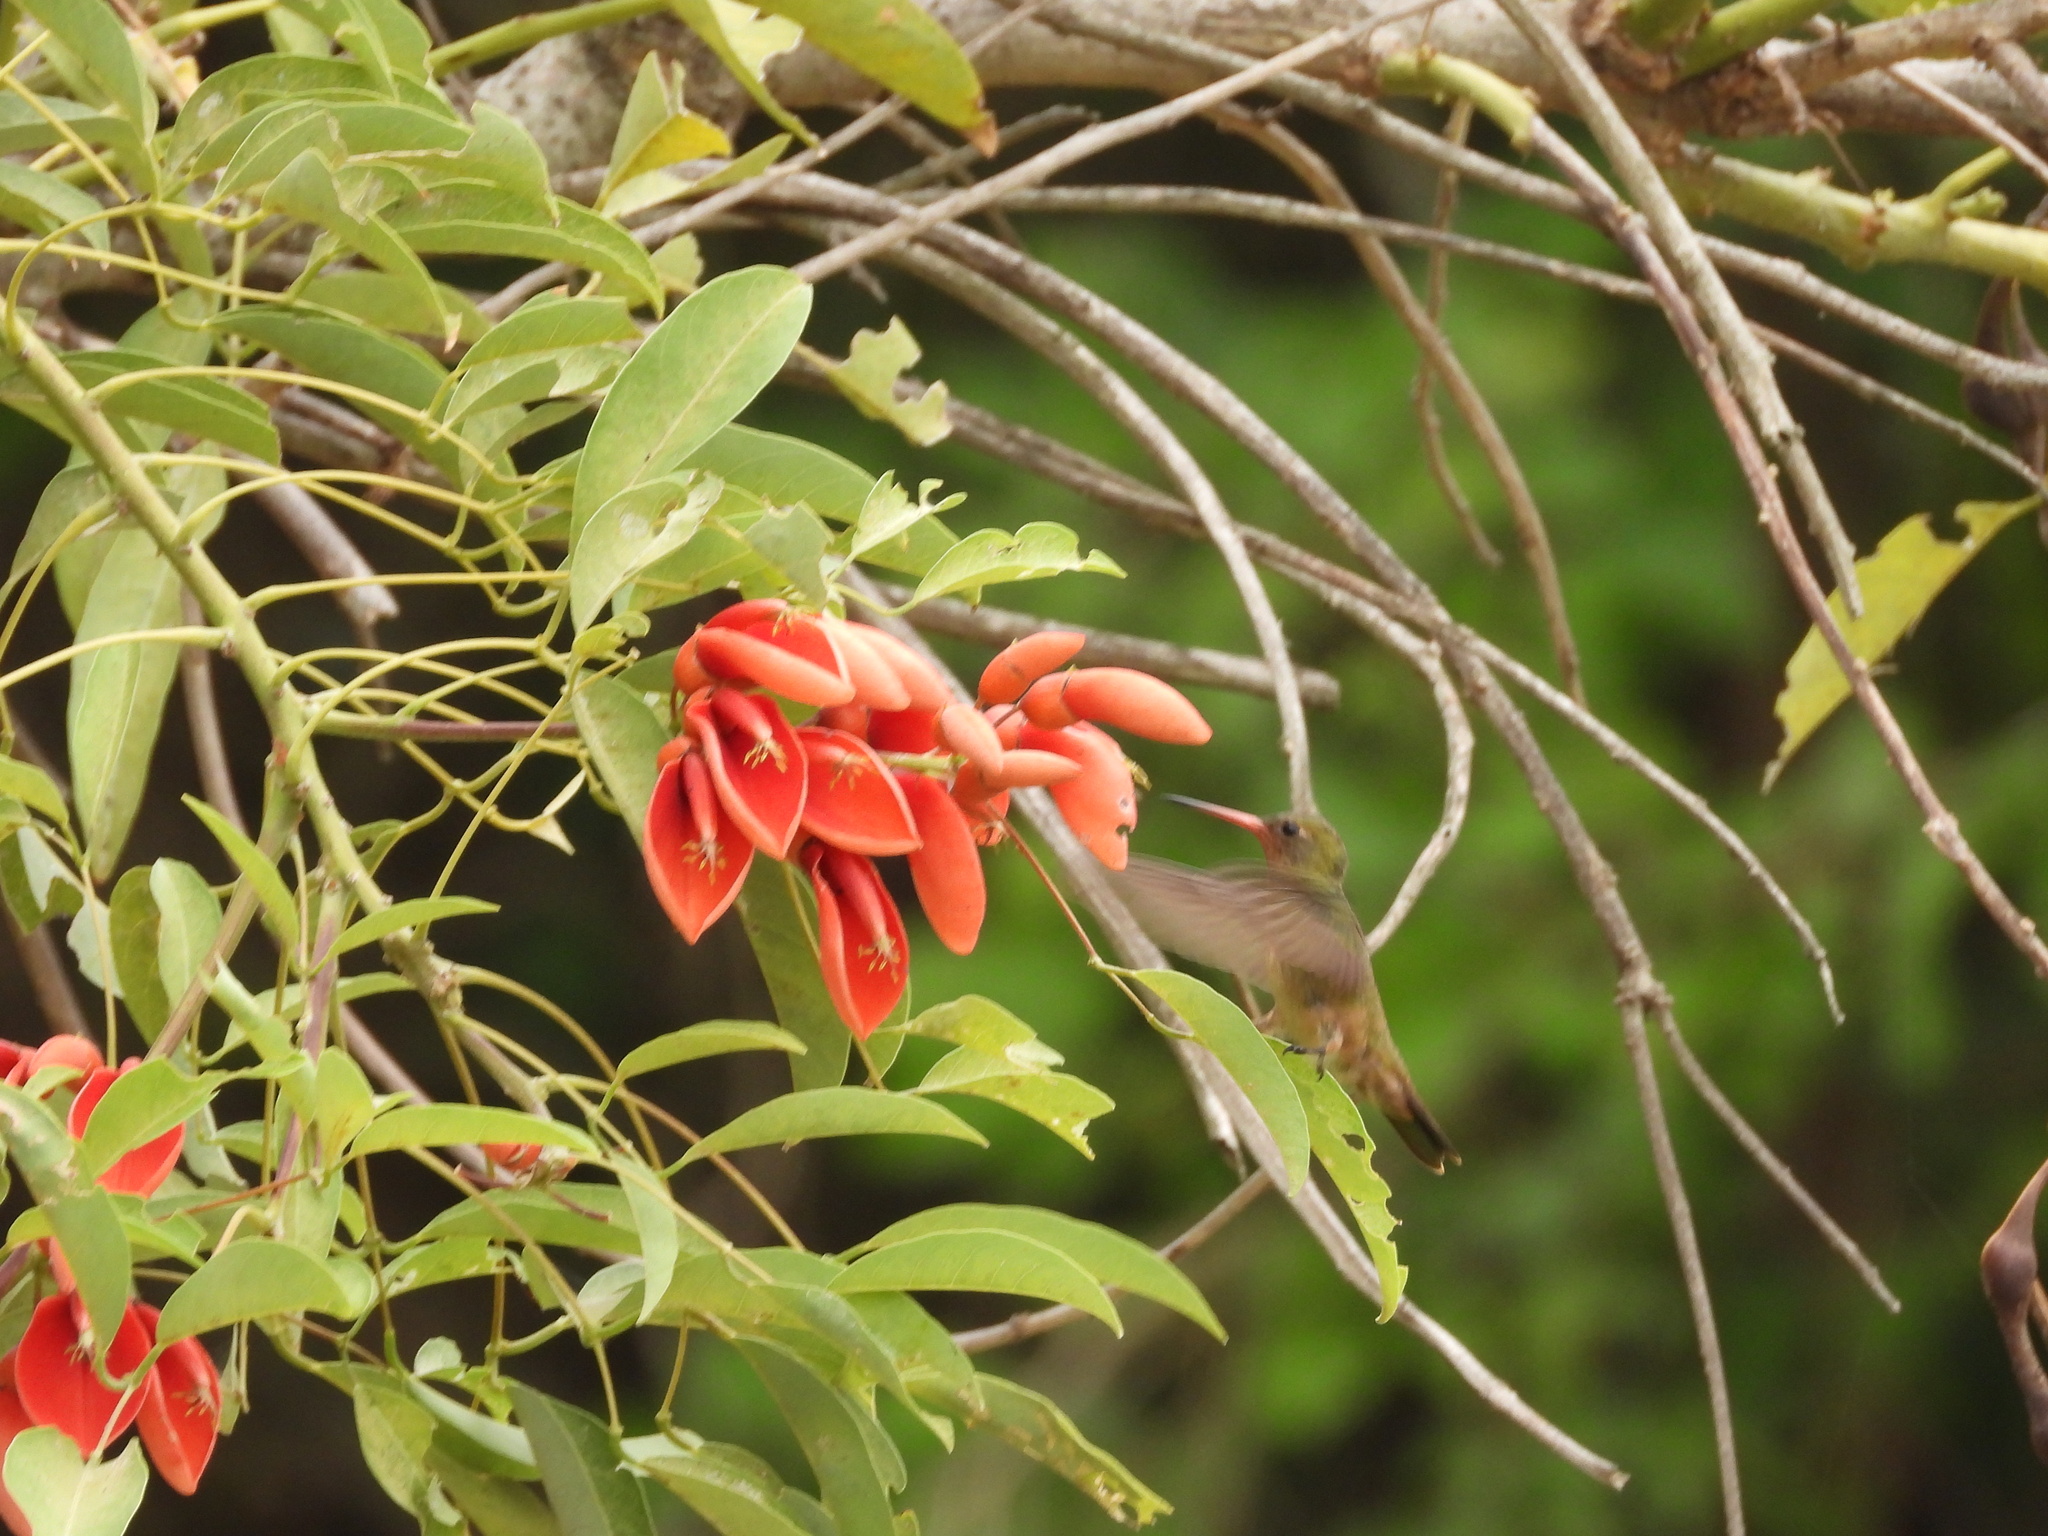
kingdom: Animalia
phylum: Chordata
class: Aves
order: Apodiformes
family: Trochilidae
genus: Hylocharis
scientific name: Hylocharis chrysura
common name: Gilded sapphire
